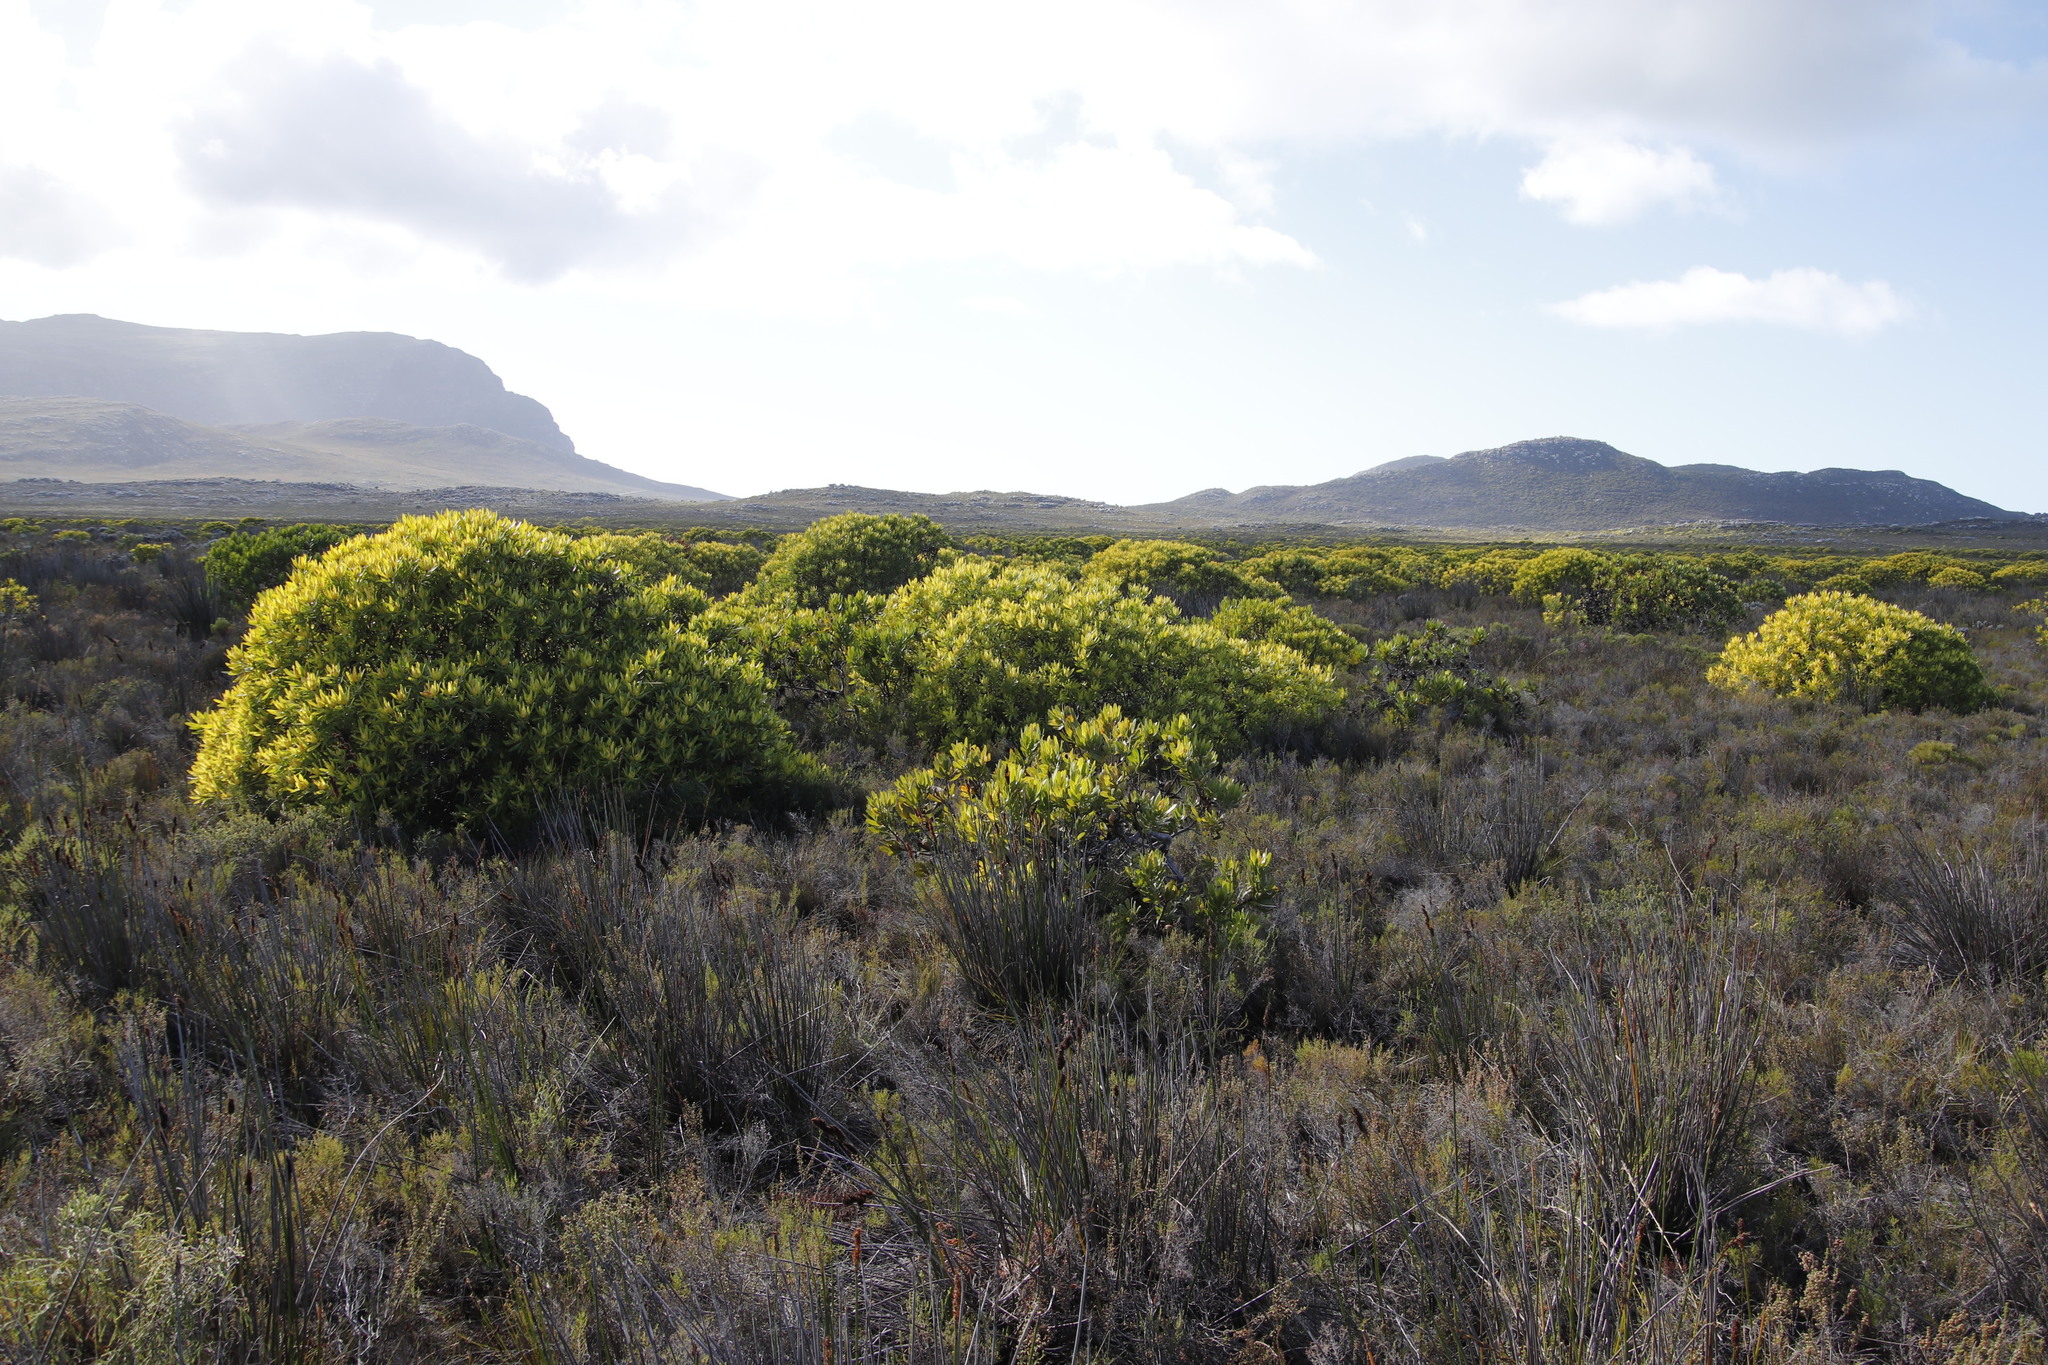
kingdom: Plantae
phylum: Tracheophyta
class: Magnoliopsida
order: Proteales
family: Proteaceae
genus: Leucadendron
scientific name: Leucadendron laureolum
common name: Golden sunshinebush
